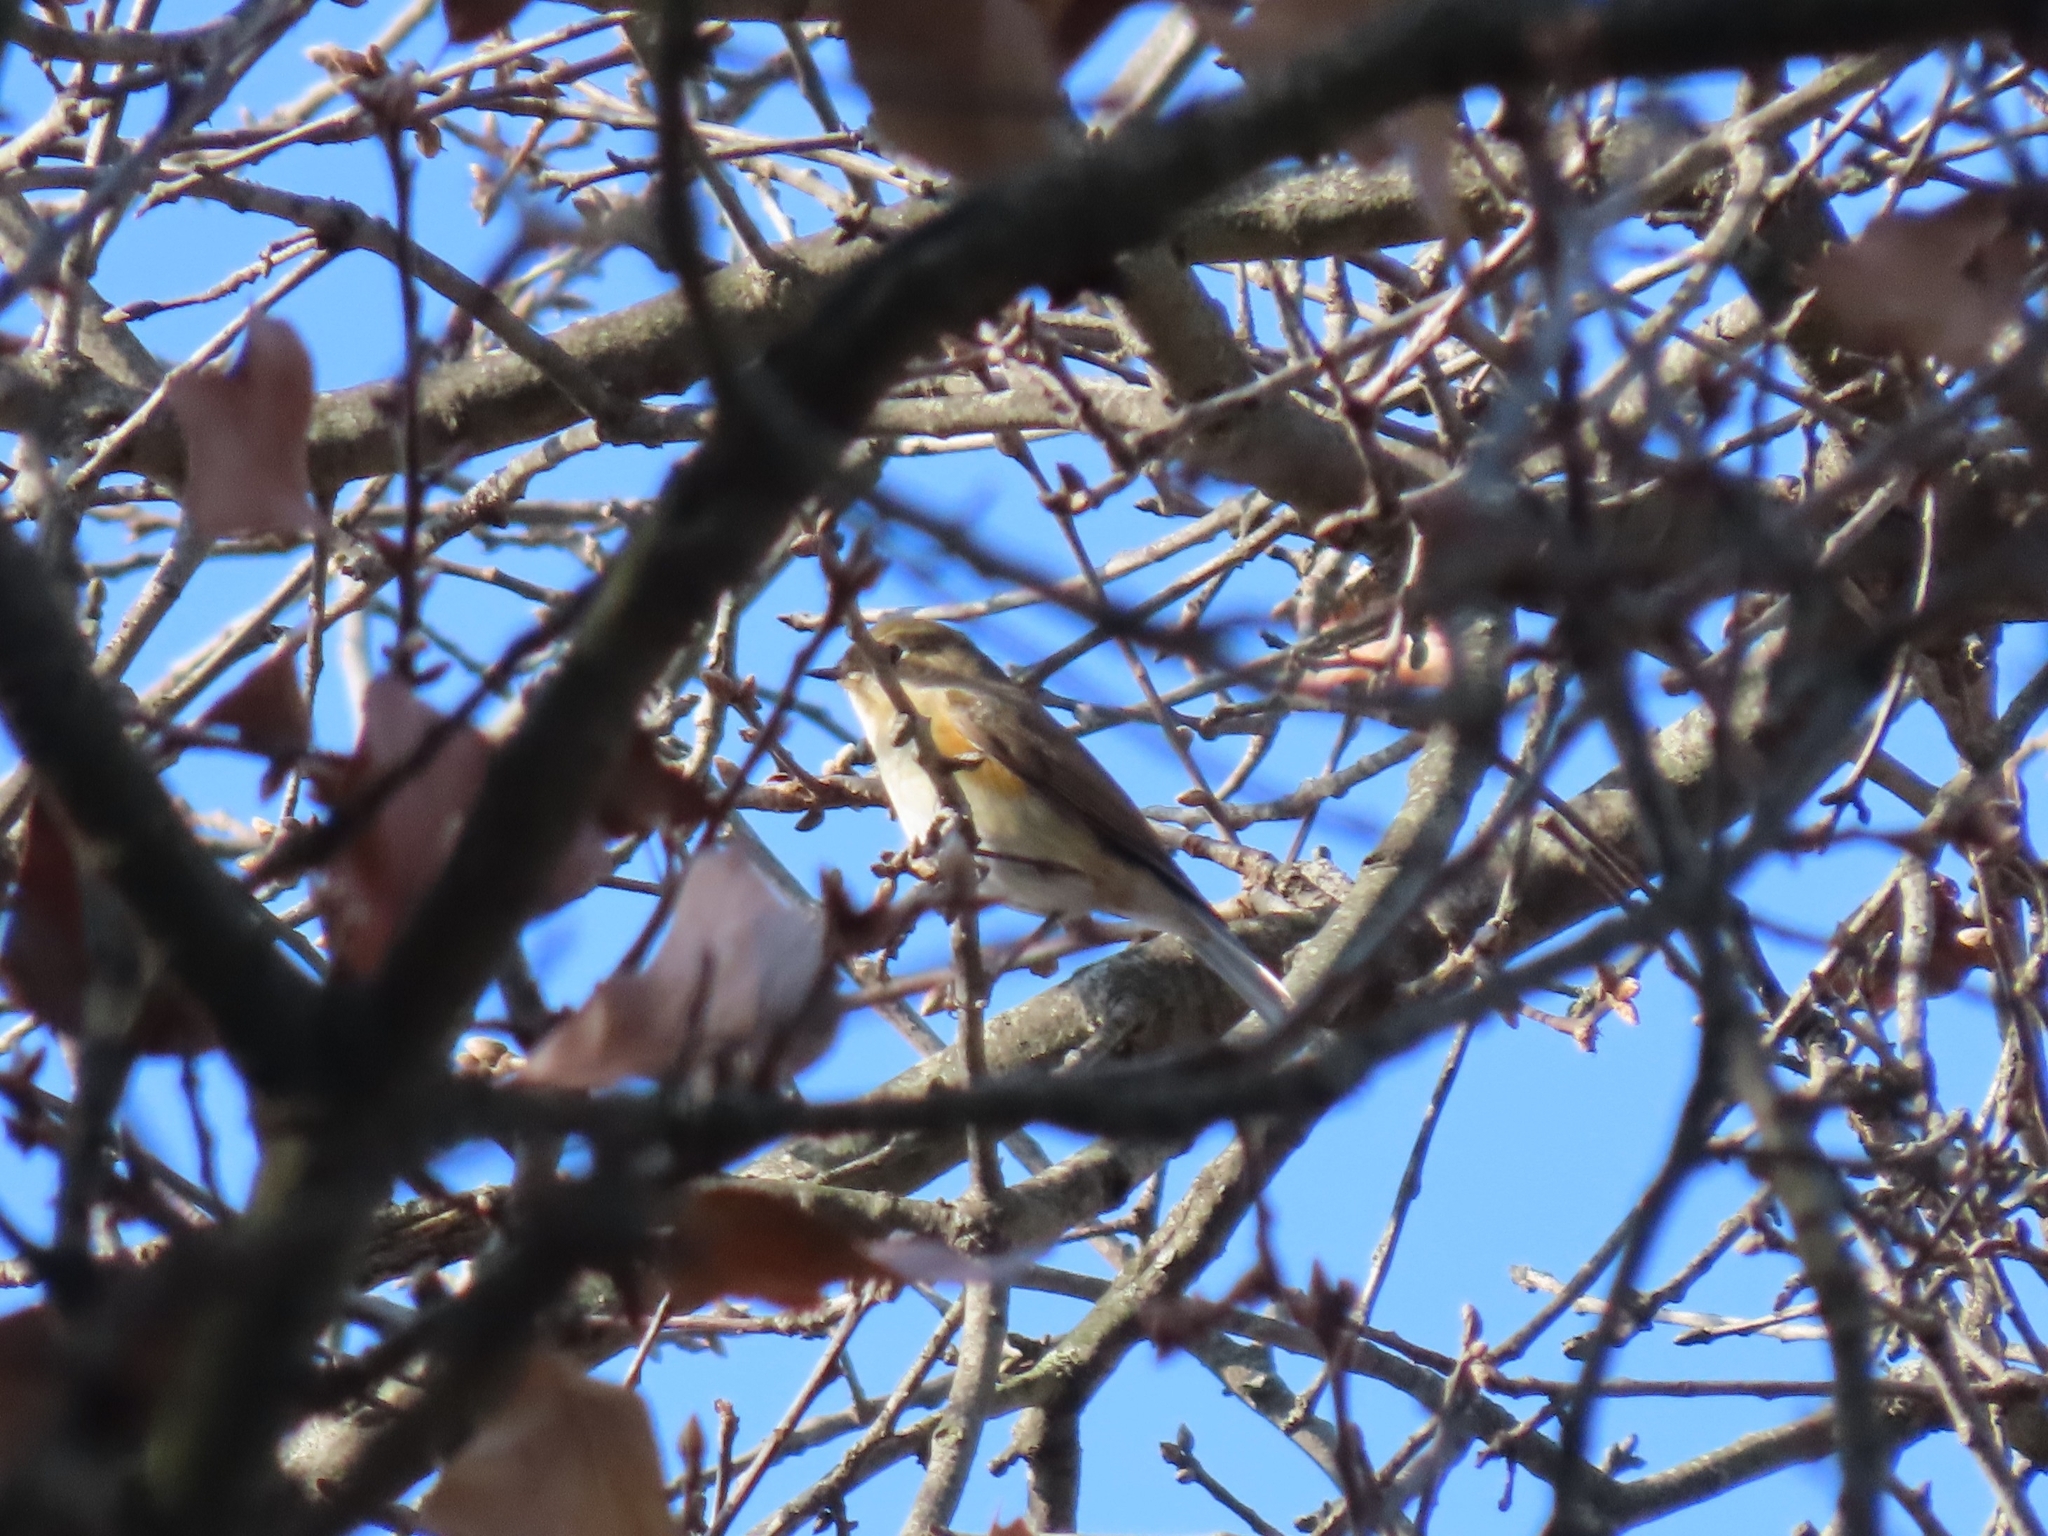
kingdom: Animalia
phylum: Chordata
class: Aves
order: Passeriformes
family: Muscicapidae
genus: Tarsiger
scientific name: Tarsiger cyanurus
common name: Red-flanked bluetail
